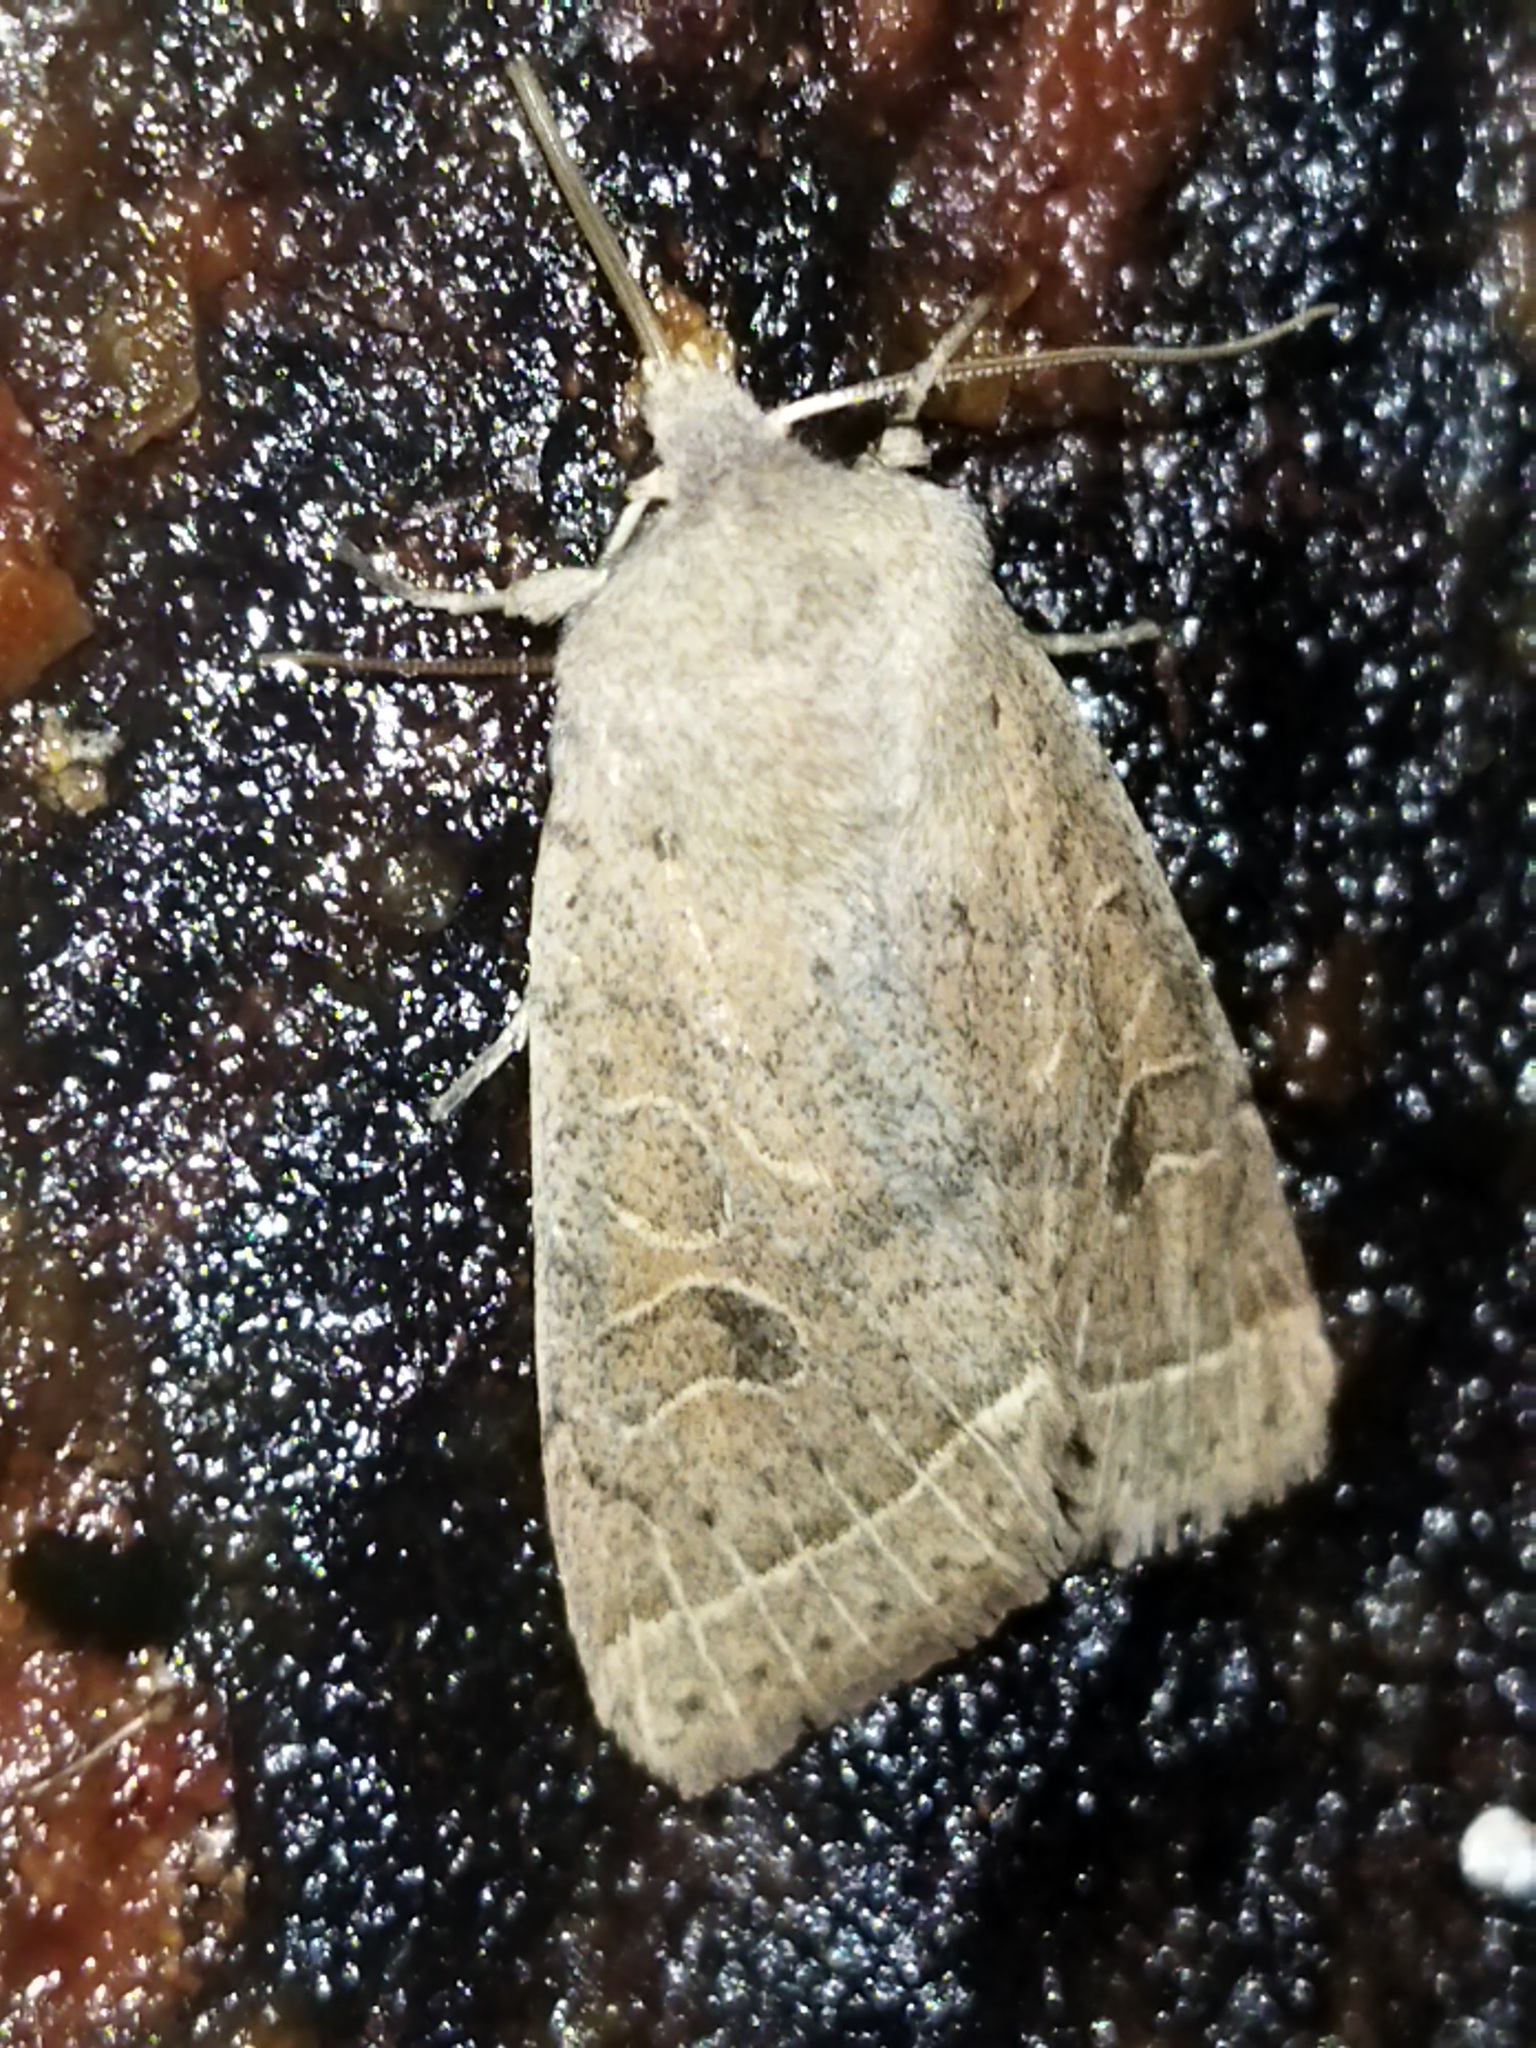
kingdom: Animalia
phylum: Arthropoda
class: Insecta
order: Lepidoptera
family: Noctuidae
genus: Orthosia
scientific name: Orthosia cerasi
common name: Common quaker
